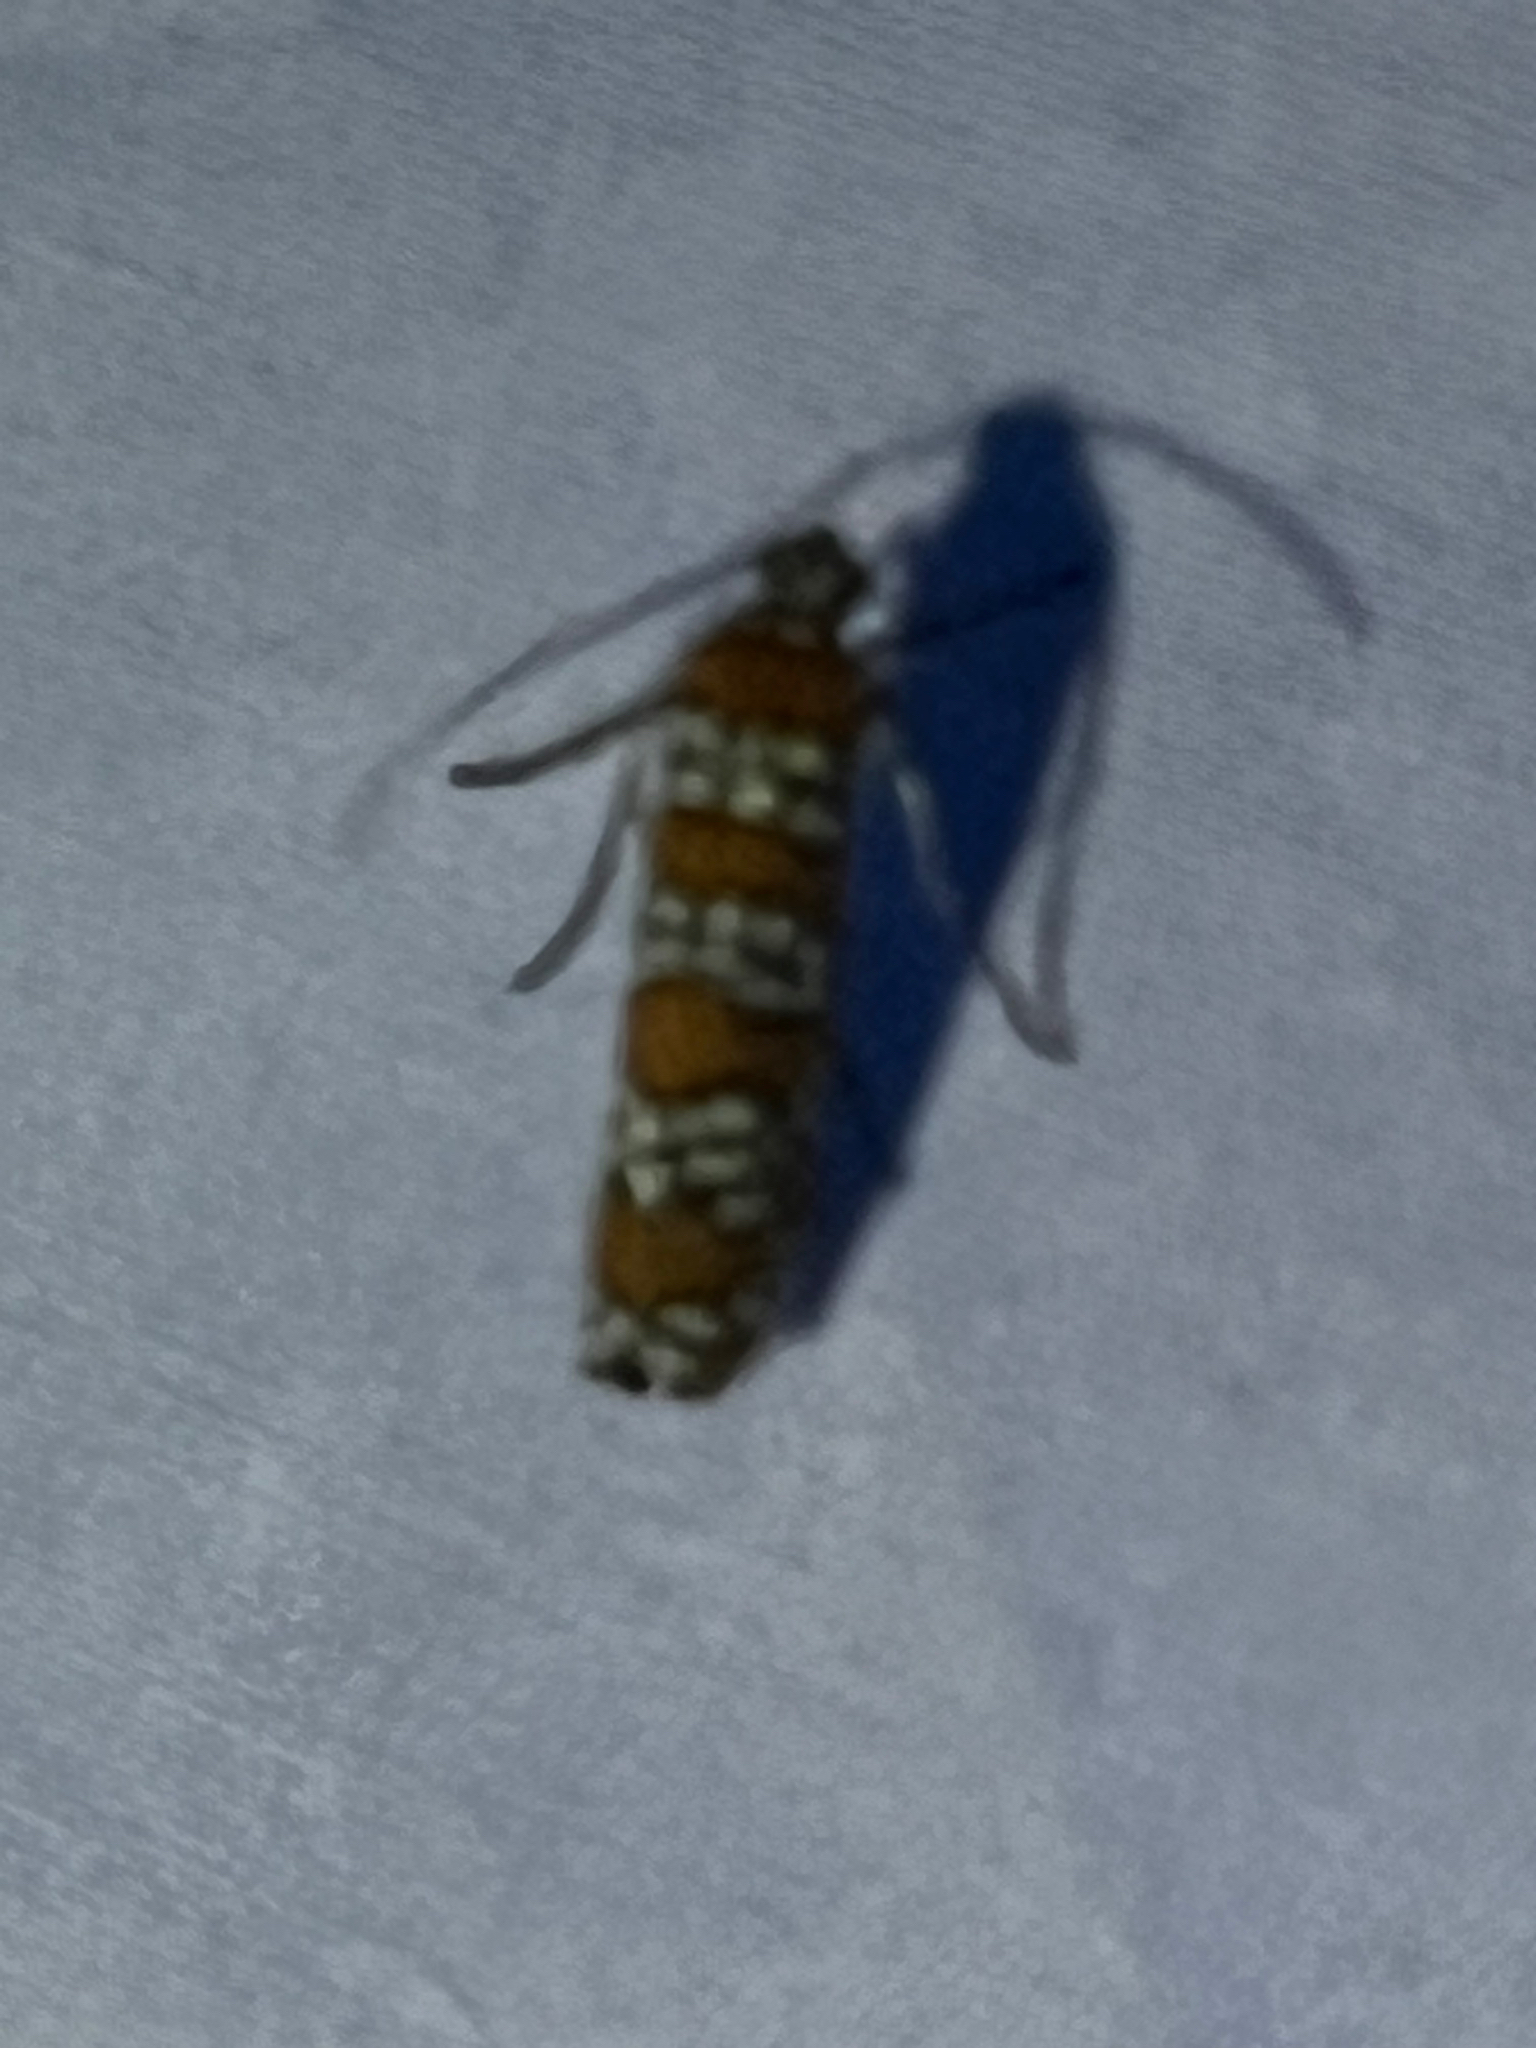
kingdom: Animalia
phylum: Arthropoda
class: Insecta
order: Lepidoptera
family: Attevidae
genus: Atteva
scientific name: Atteva punctella
